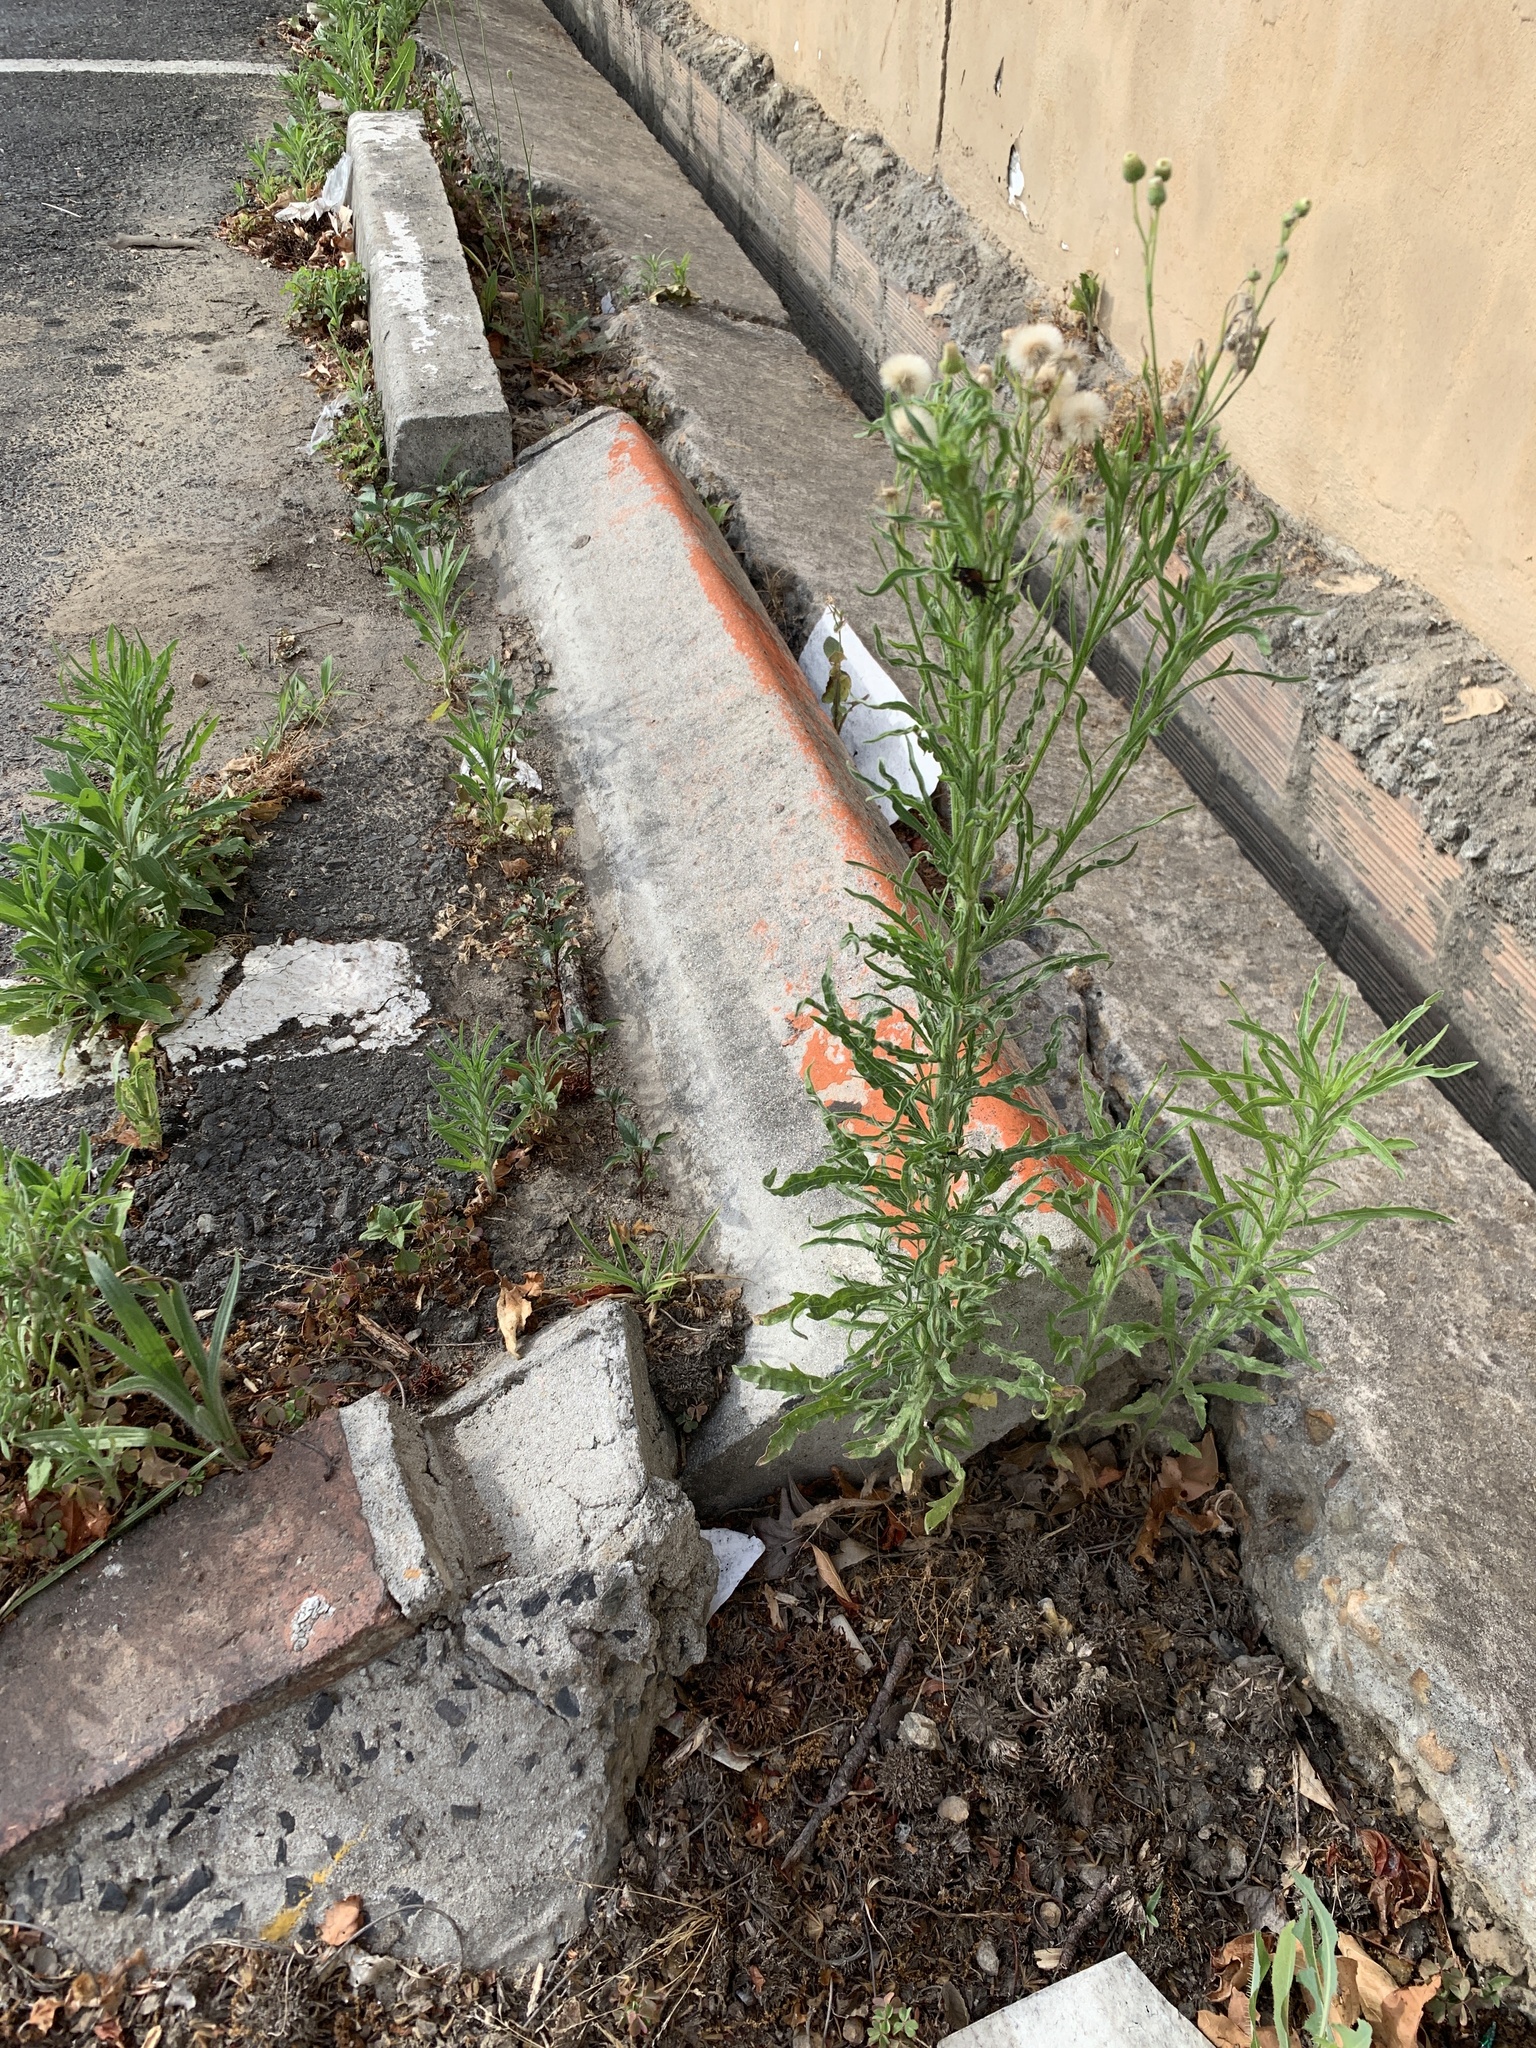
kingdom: Plantae
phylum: Tracheophyta
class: Magnoliopsida
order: Asterales
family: Asteraceae
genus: Erigeron
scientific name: Erigeron bonariensis
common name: Argentine fleabane
